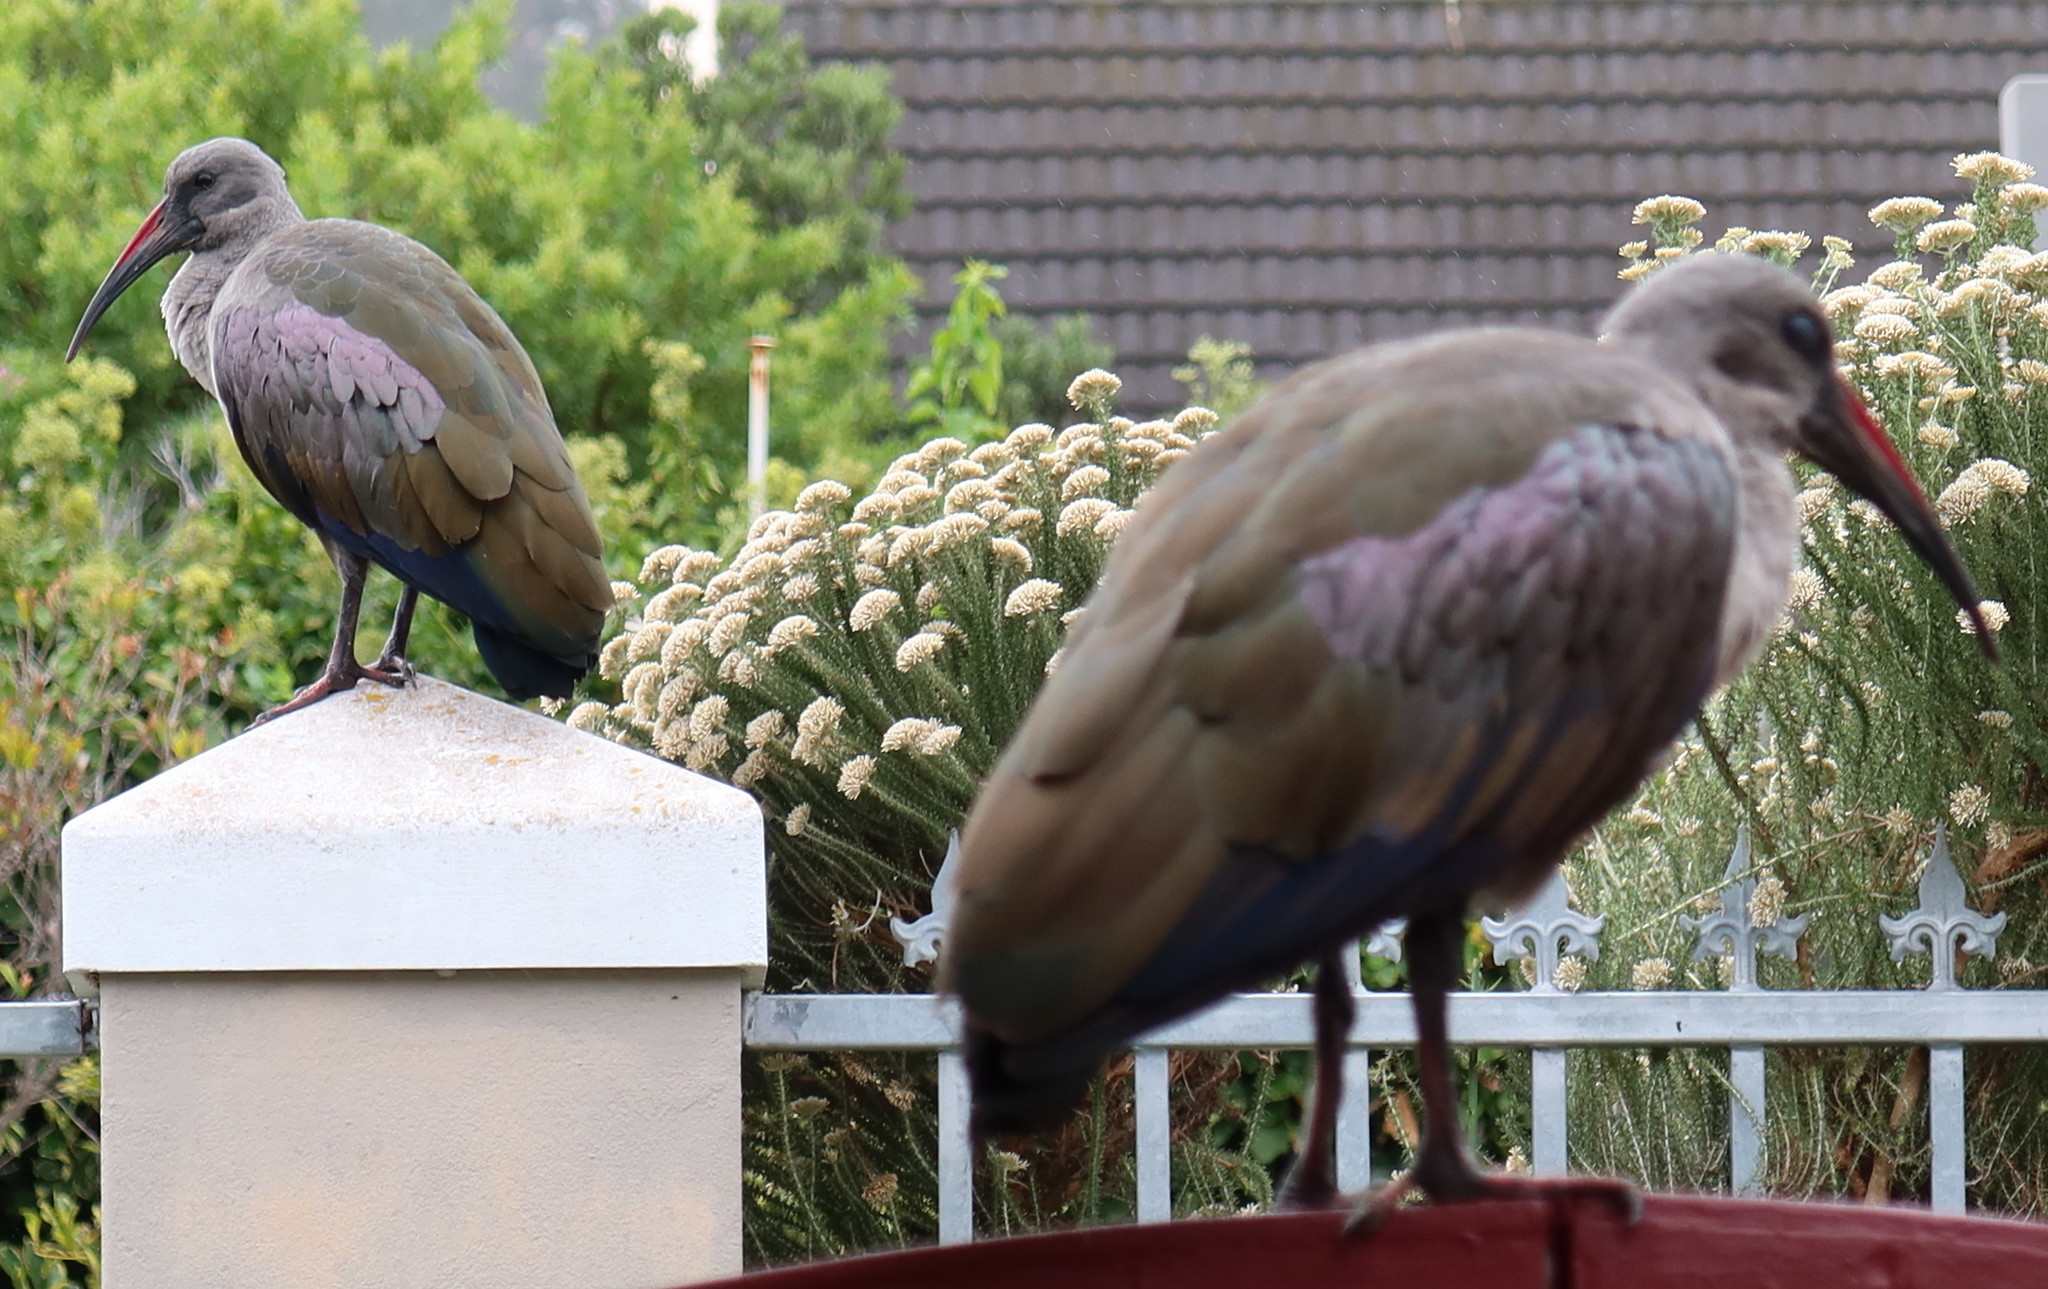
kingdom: Animalia
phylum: Chordata
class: Aves
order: Pelecaniformes
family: Threskiornithidae
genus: Bostrychia
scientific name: Bostrychia hagedash
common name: Hadada ibis
